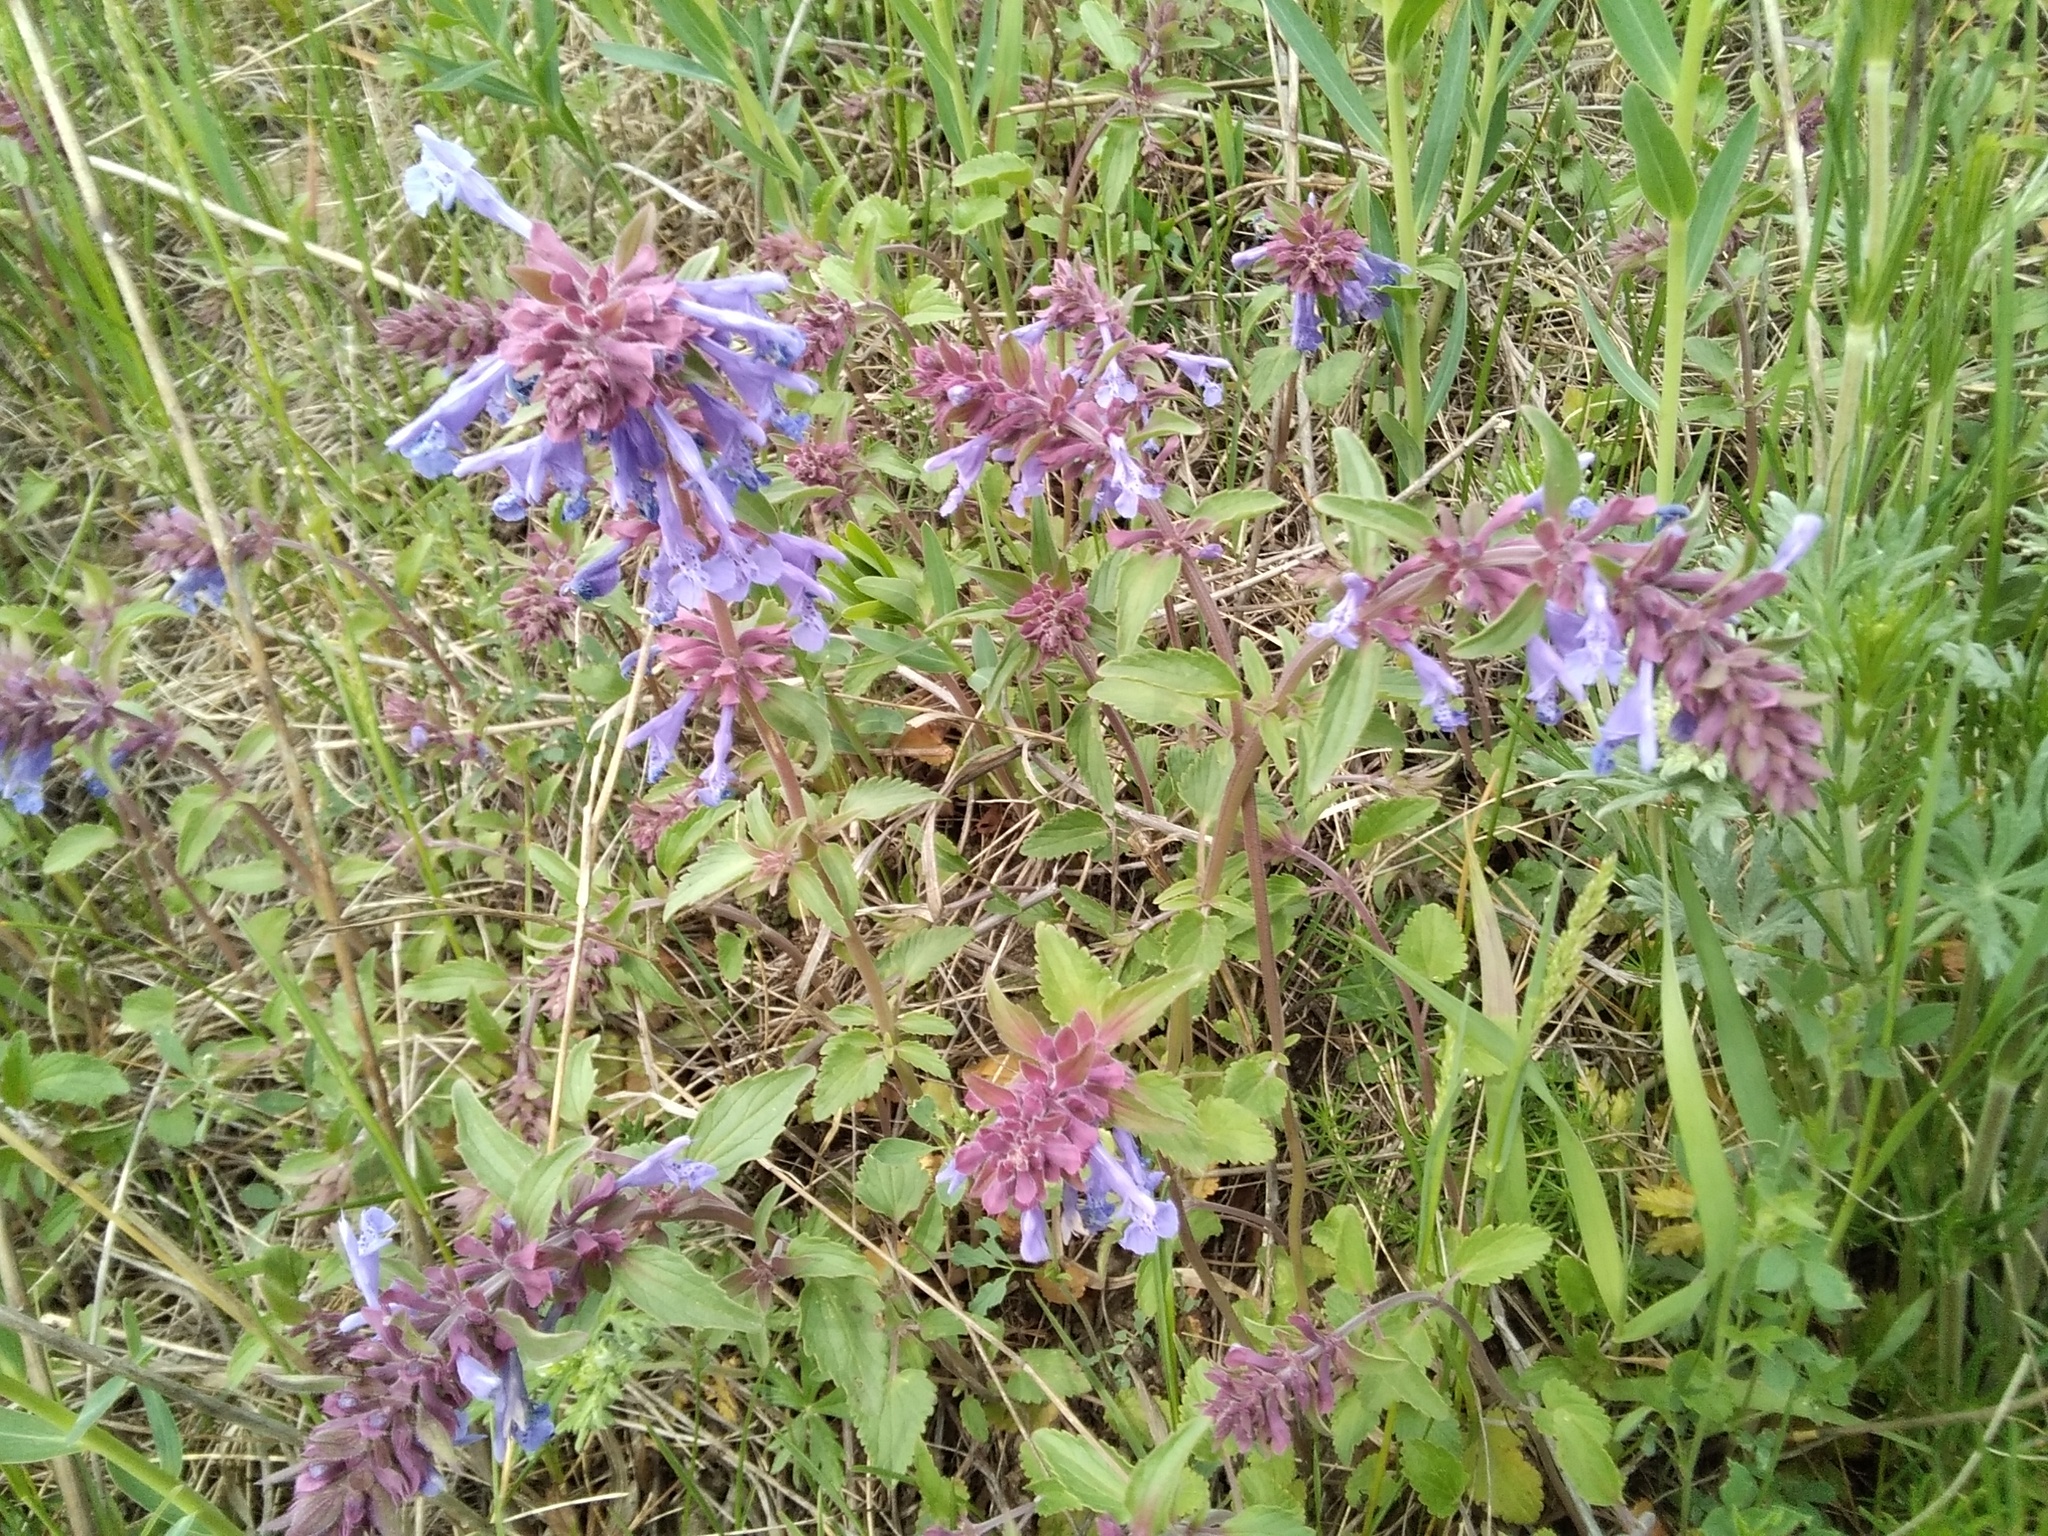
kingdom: Plantae
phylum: Tracheophyta
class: Magnoliopsida
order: Lamiales
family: Lamiaceae
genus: Dracocephalum
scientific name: Dracocephalum nutans
